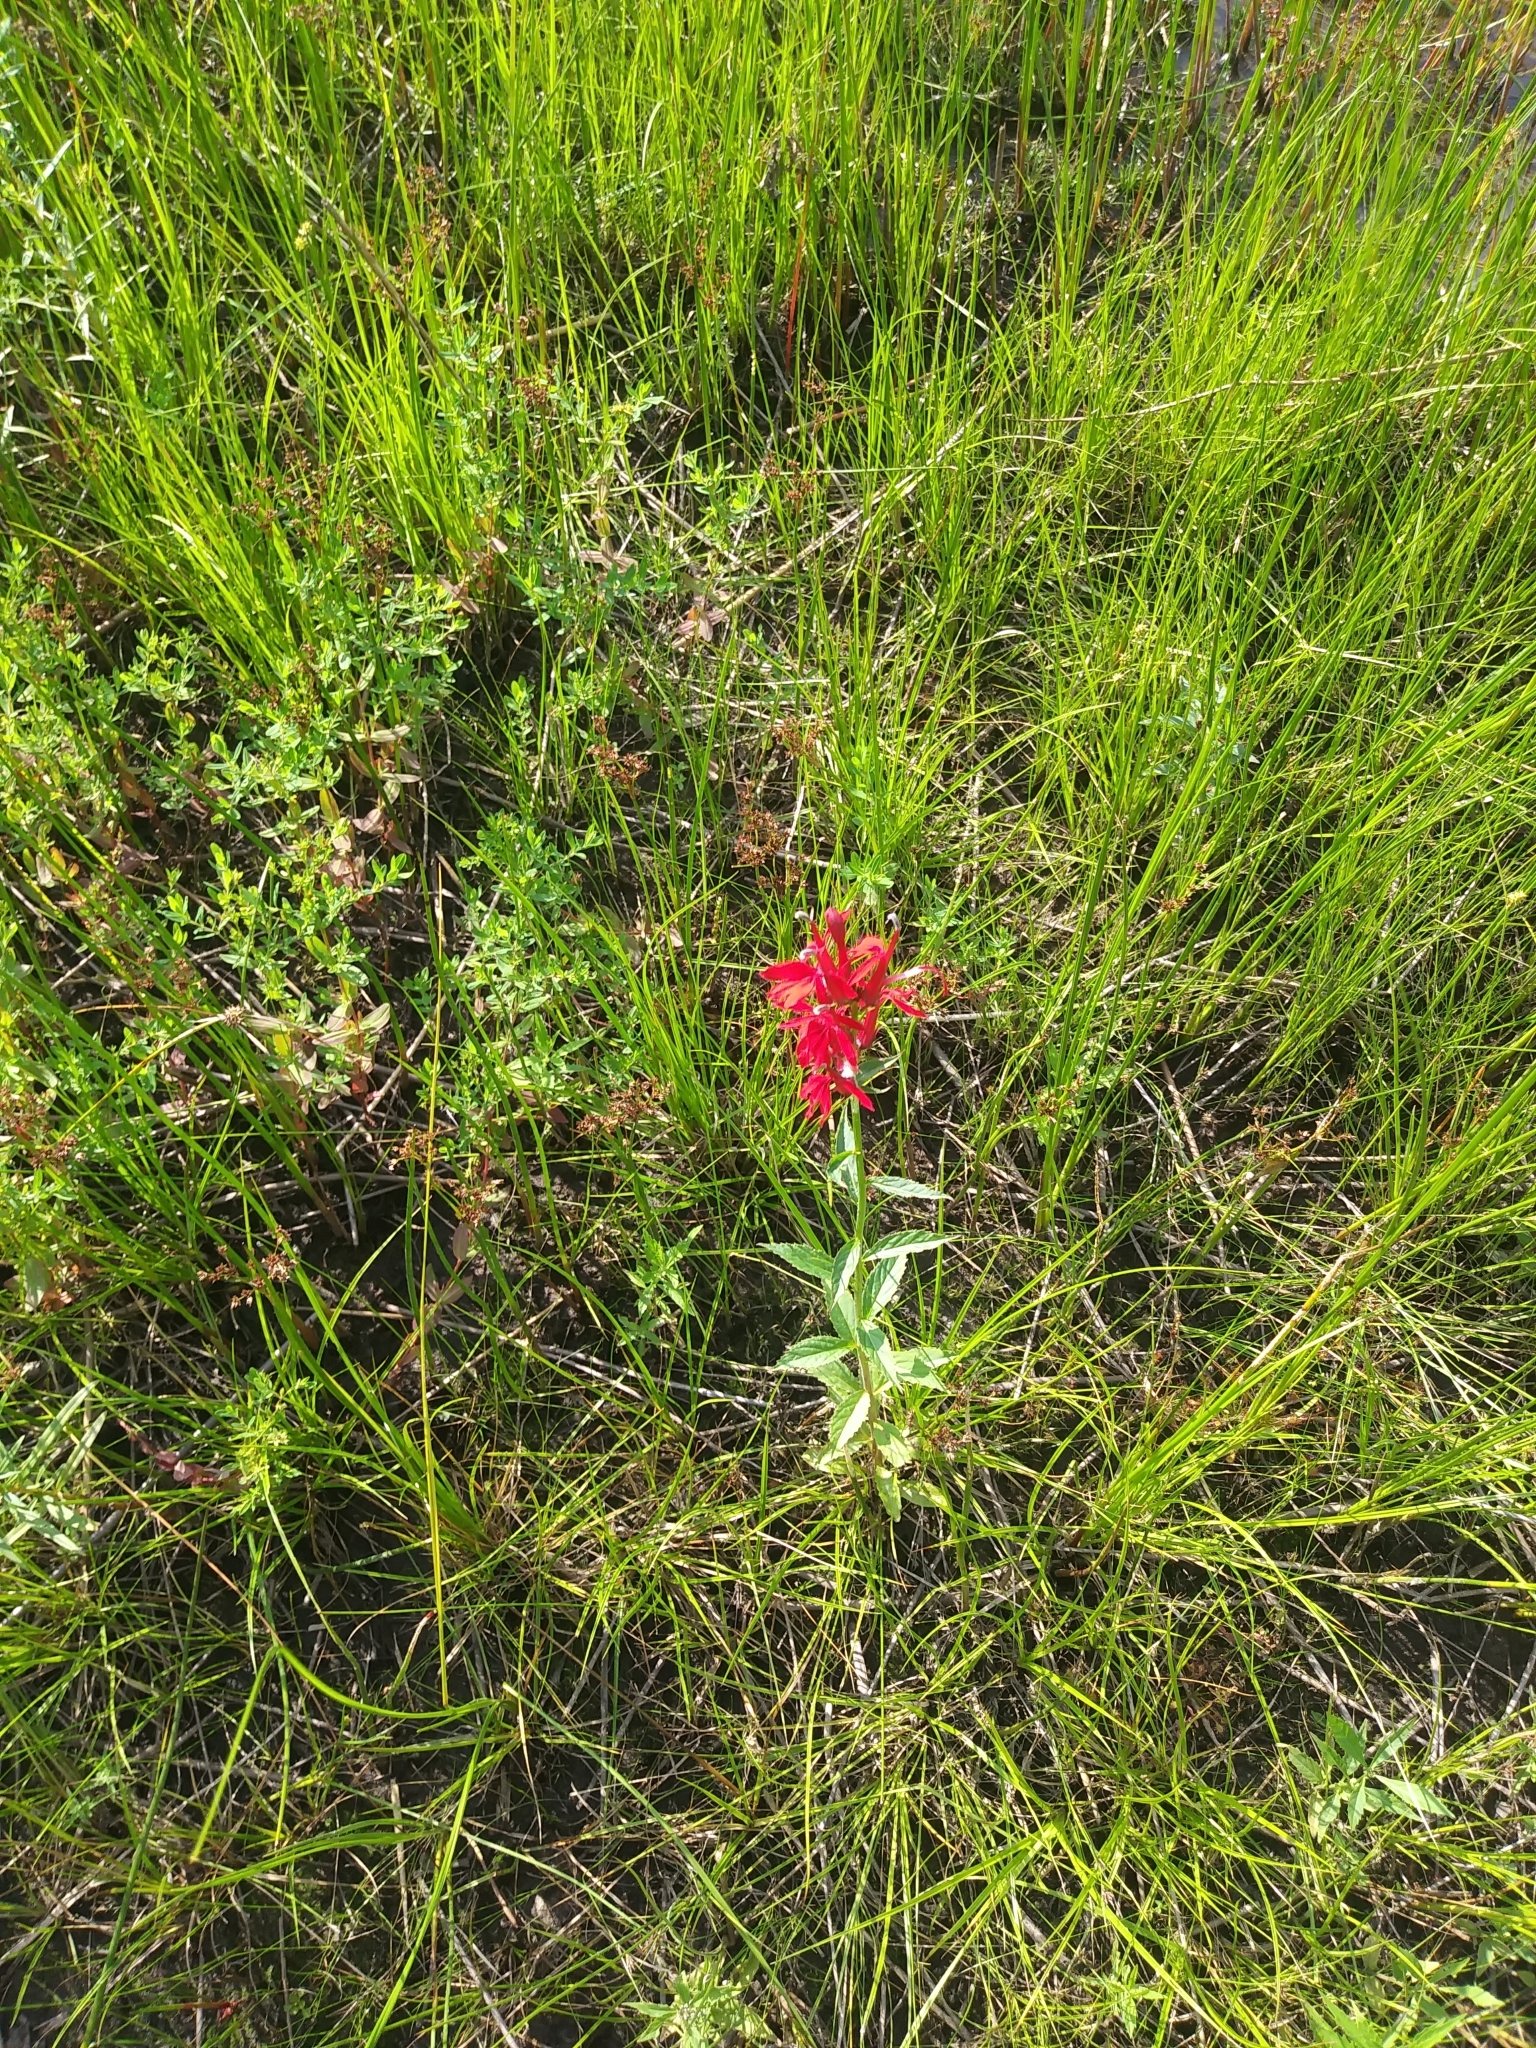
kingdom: Plantae
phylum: Tracheophyta
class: Magnoliopsida
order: Asterales
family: Campanulaceae
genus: Lobelia
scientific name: Lobelia cardinalis
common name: Cardinal flower
